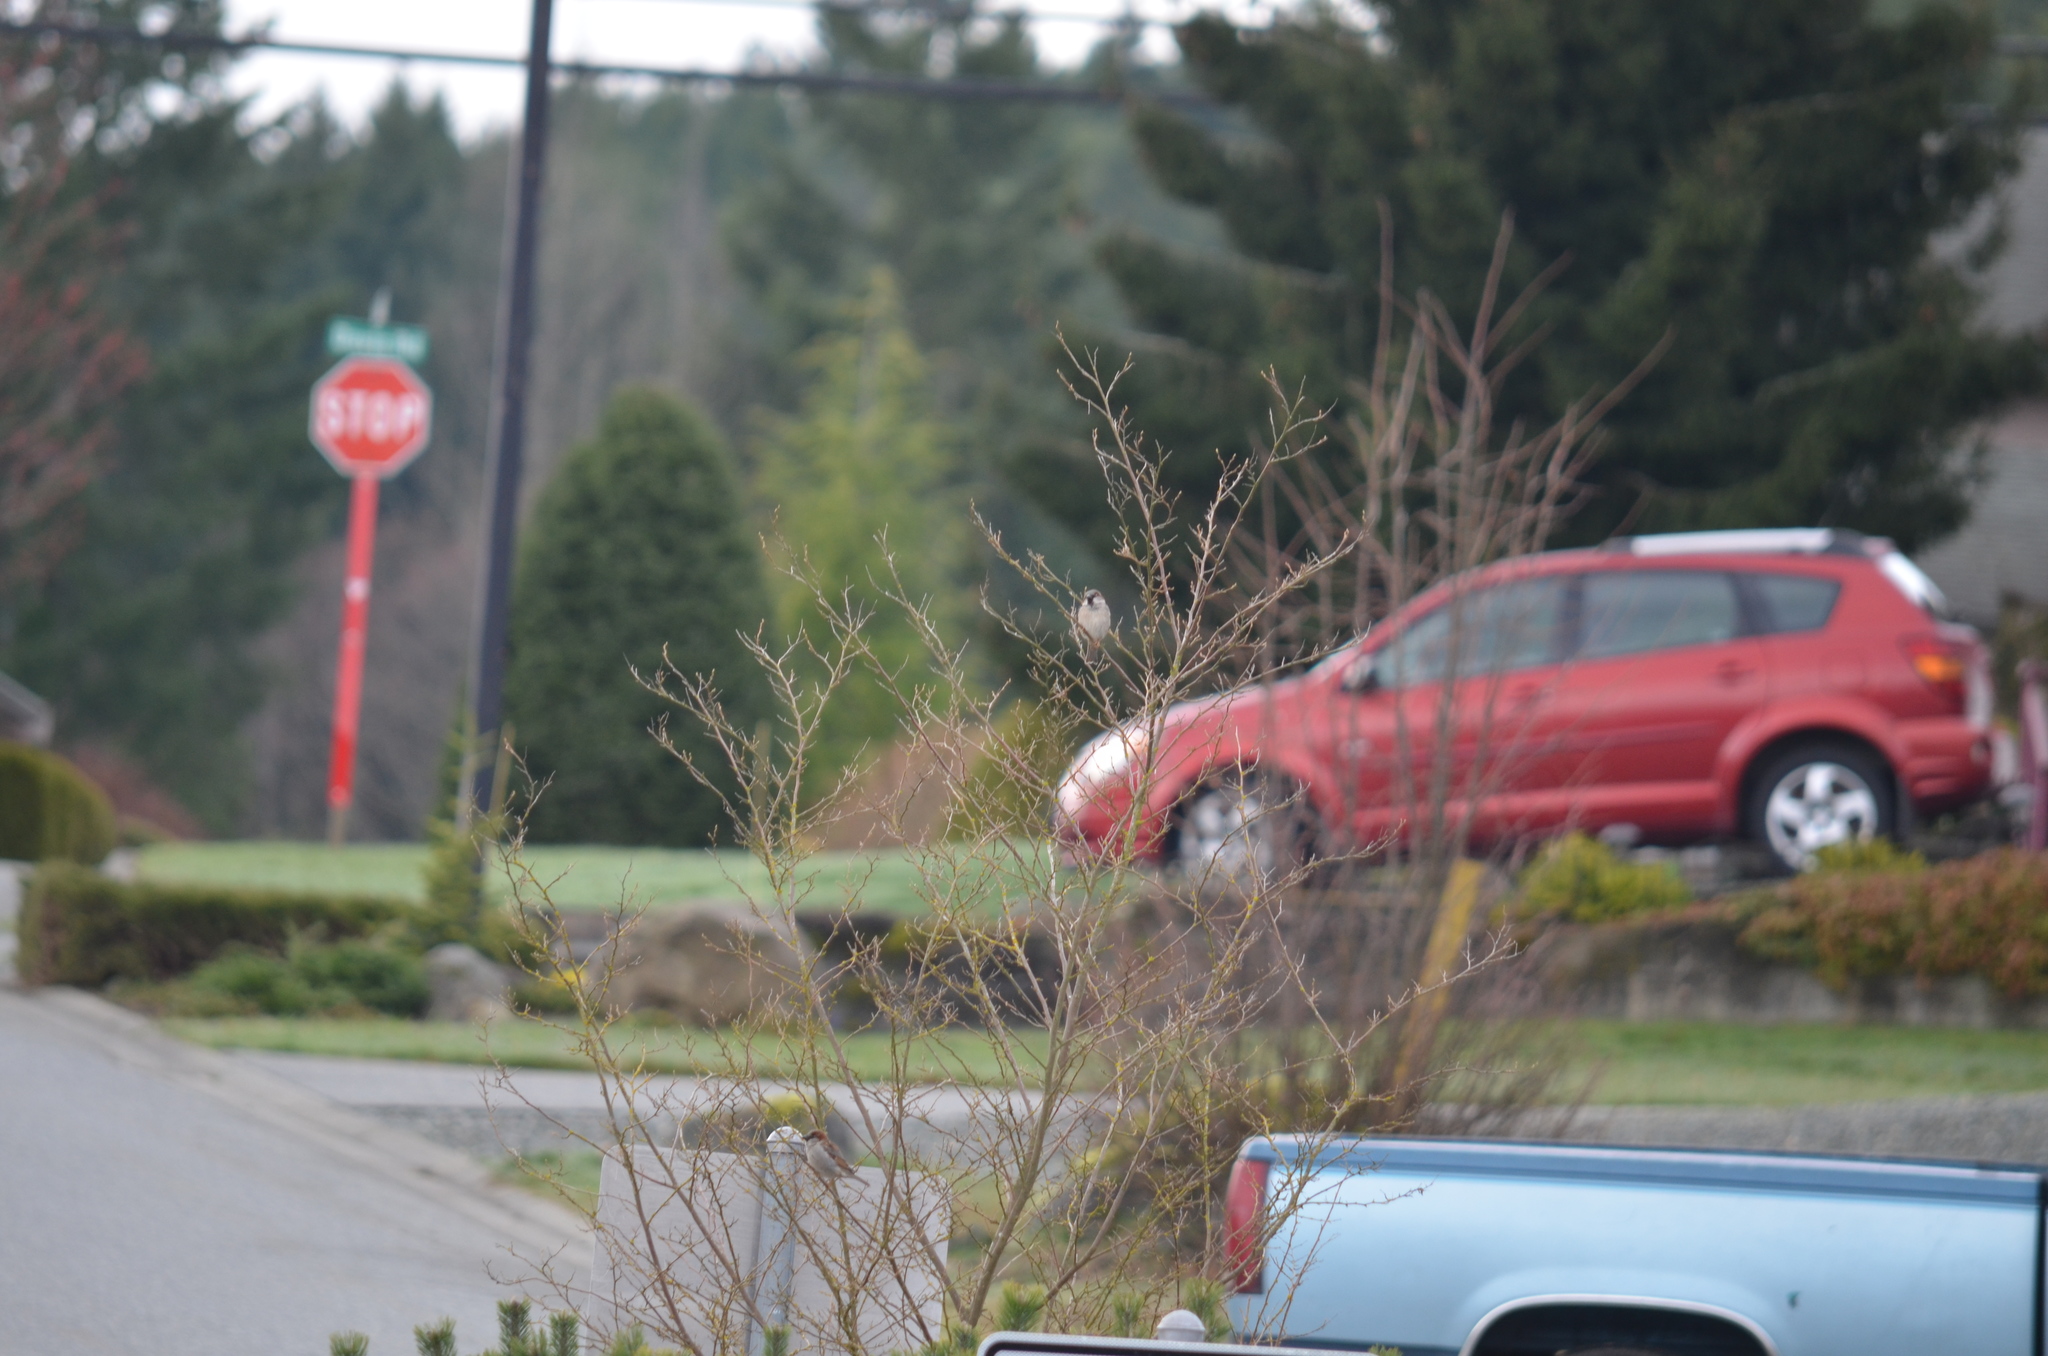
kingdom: Animalia
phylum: Chordata
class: Aves
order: Passeriformes
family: Passeridae
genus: Passer
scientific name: Passer domesticus
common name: House sparrow
